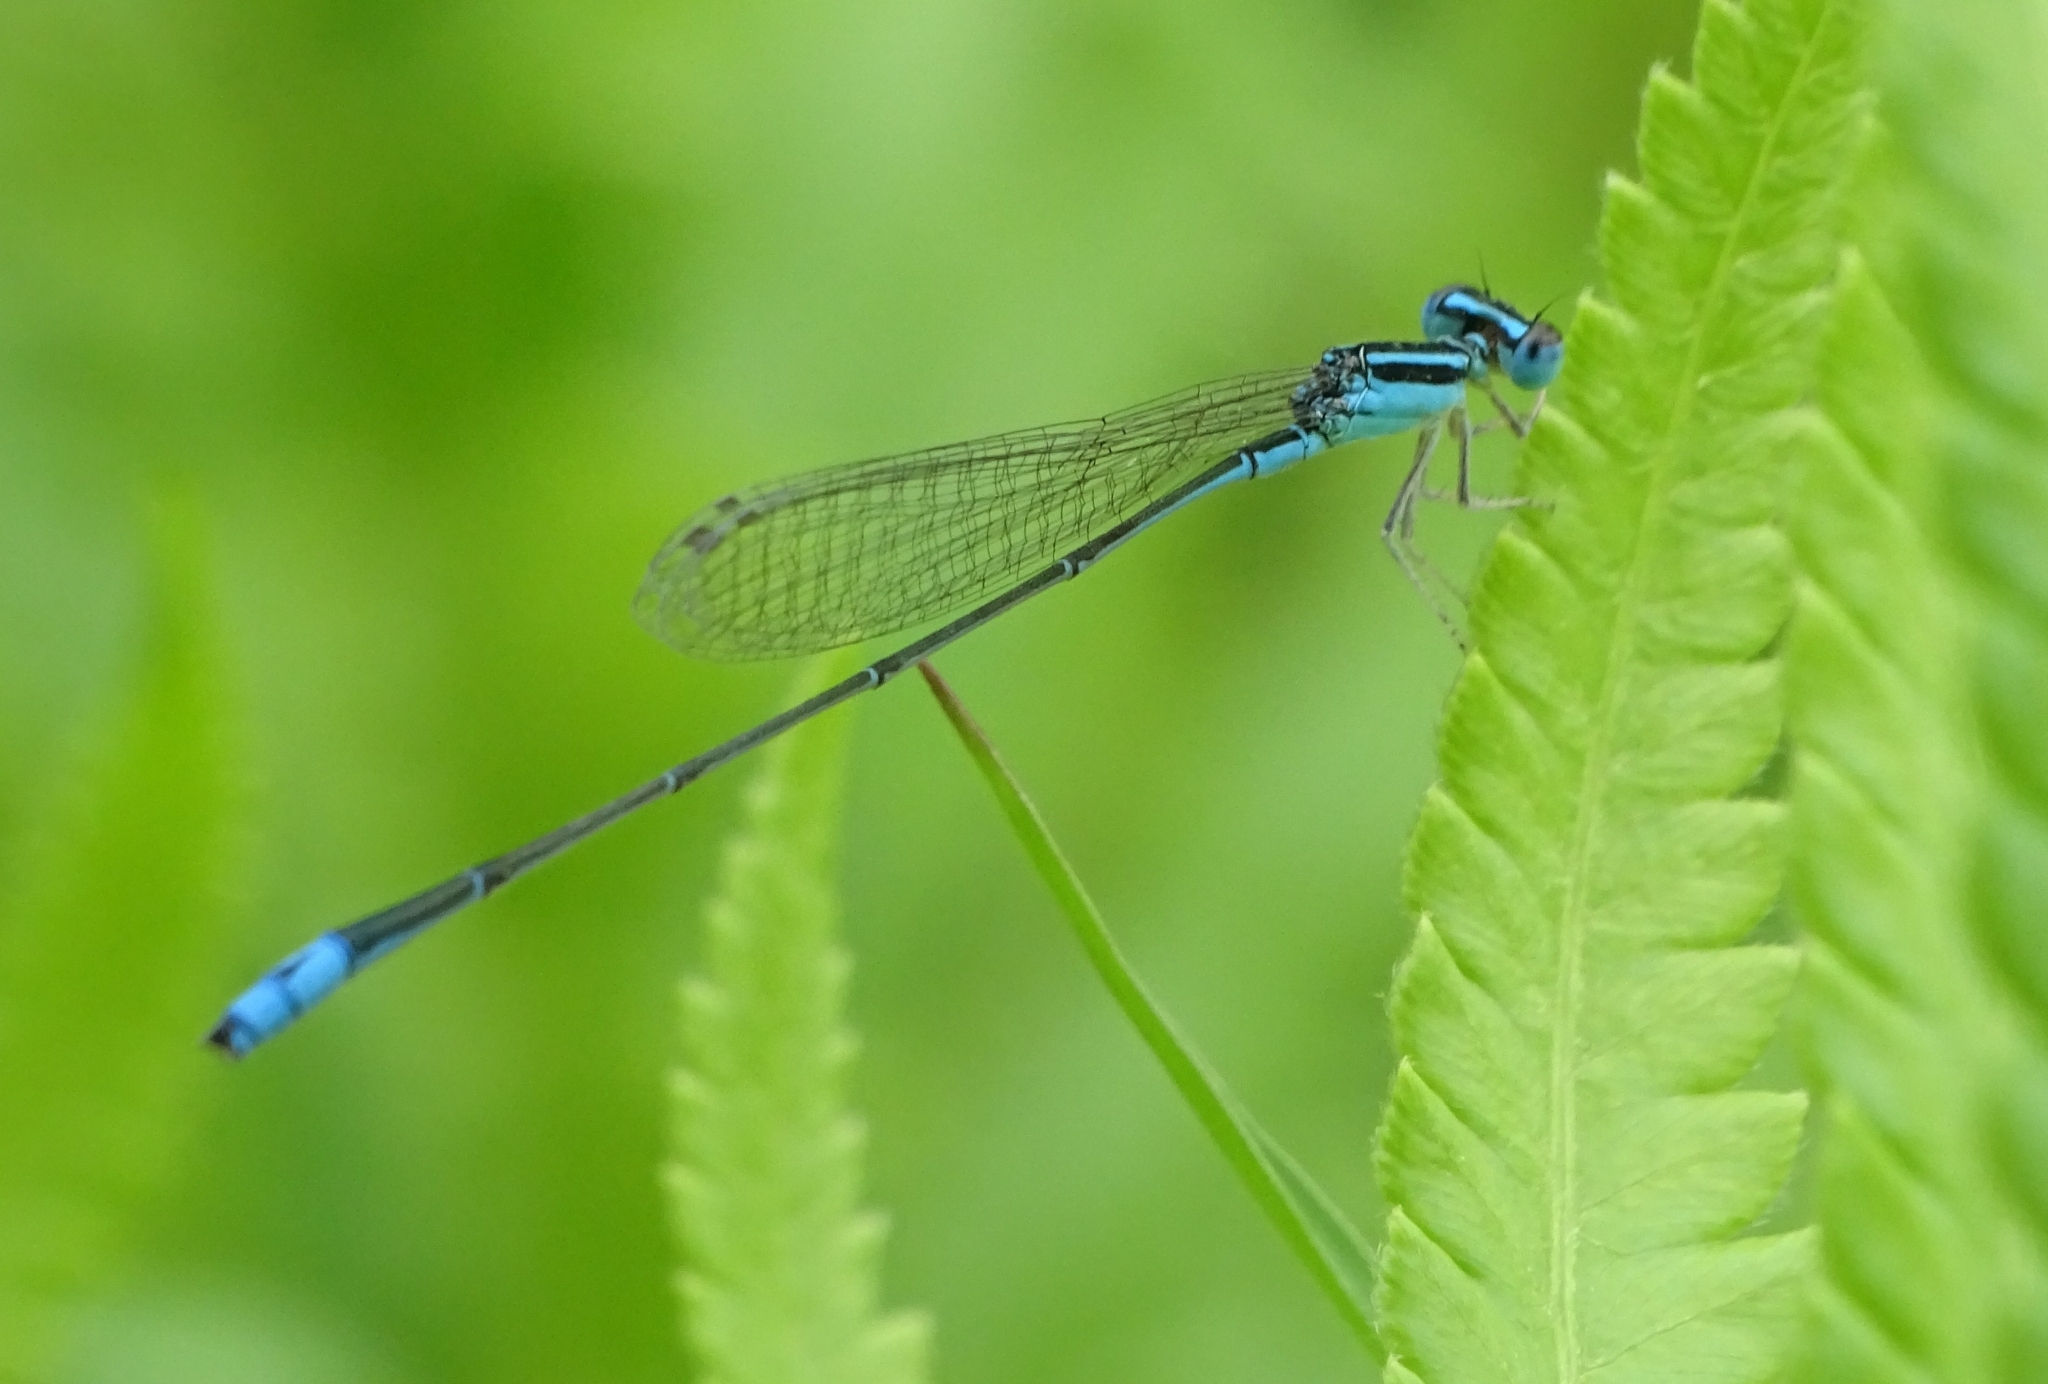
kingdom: Animalia
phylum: Arthropoda
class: Insecta
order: Odonata
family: Coenagrionidae
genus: Aciagrion
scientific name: Aciagrion occidentale
